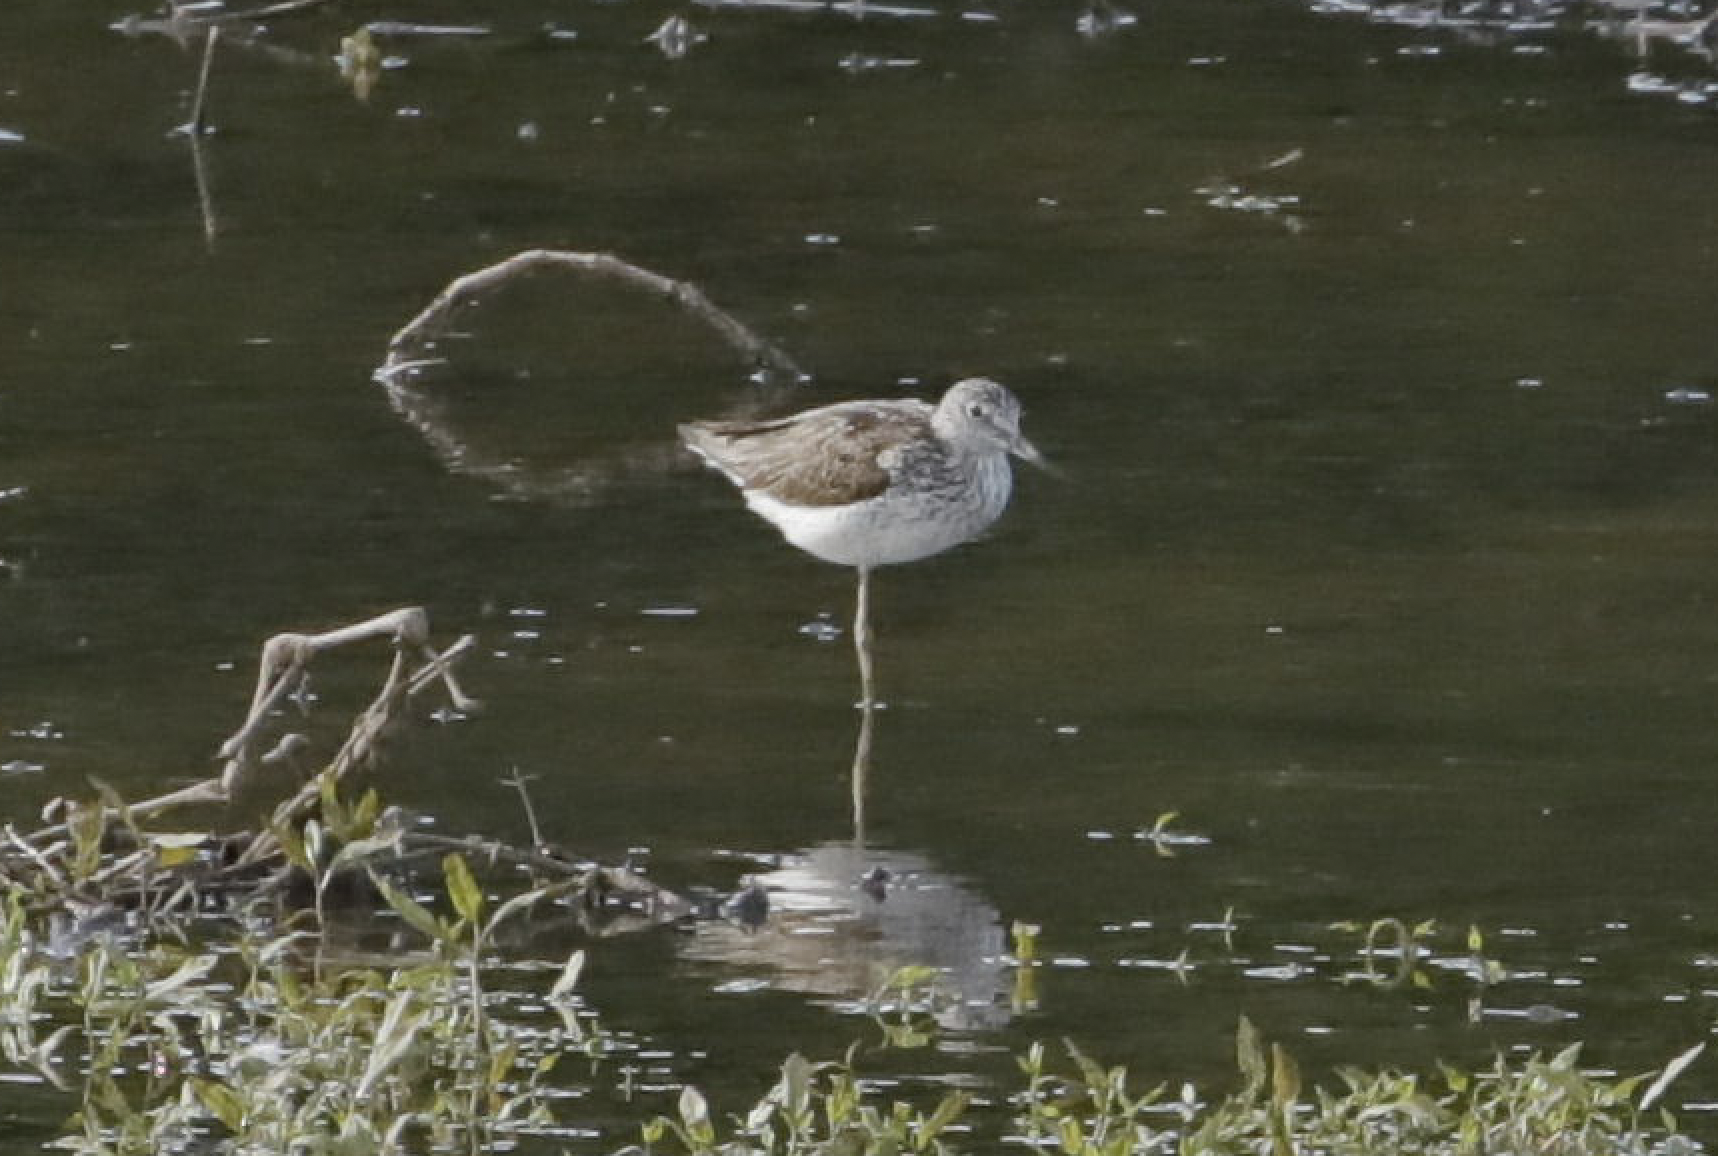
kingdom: Animalia
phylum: Chordata
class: Aves
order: Charadriiformes
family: Scolopacidae
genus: Tringa
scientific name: Tringa nebularia
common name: Common greenshank
